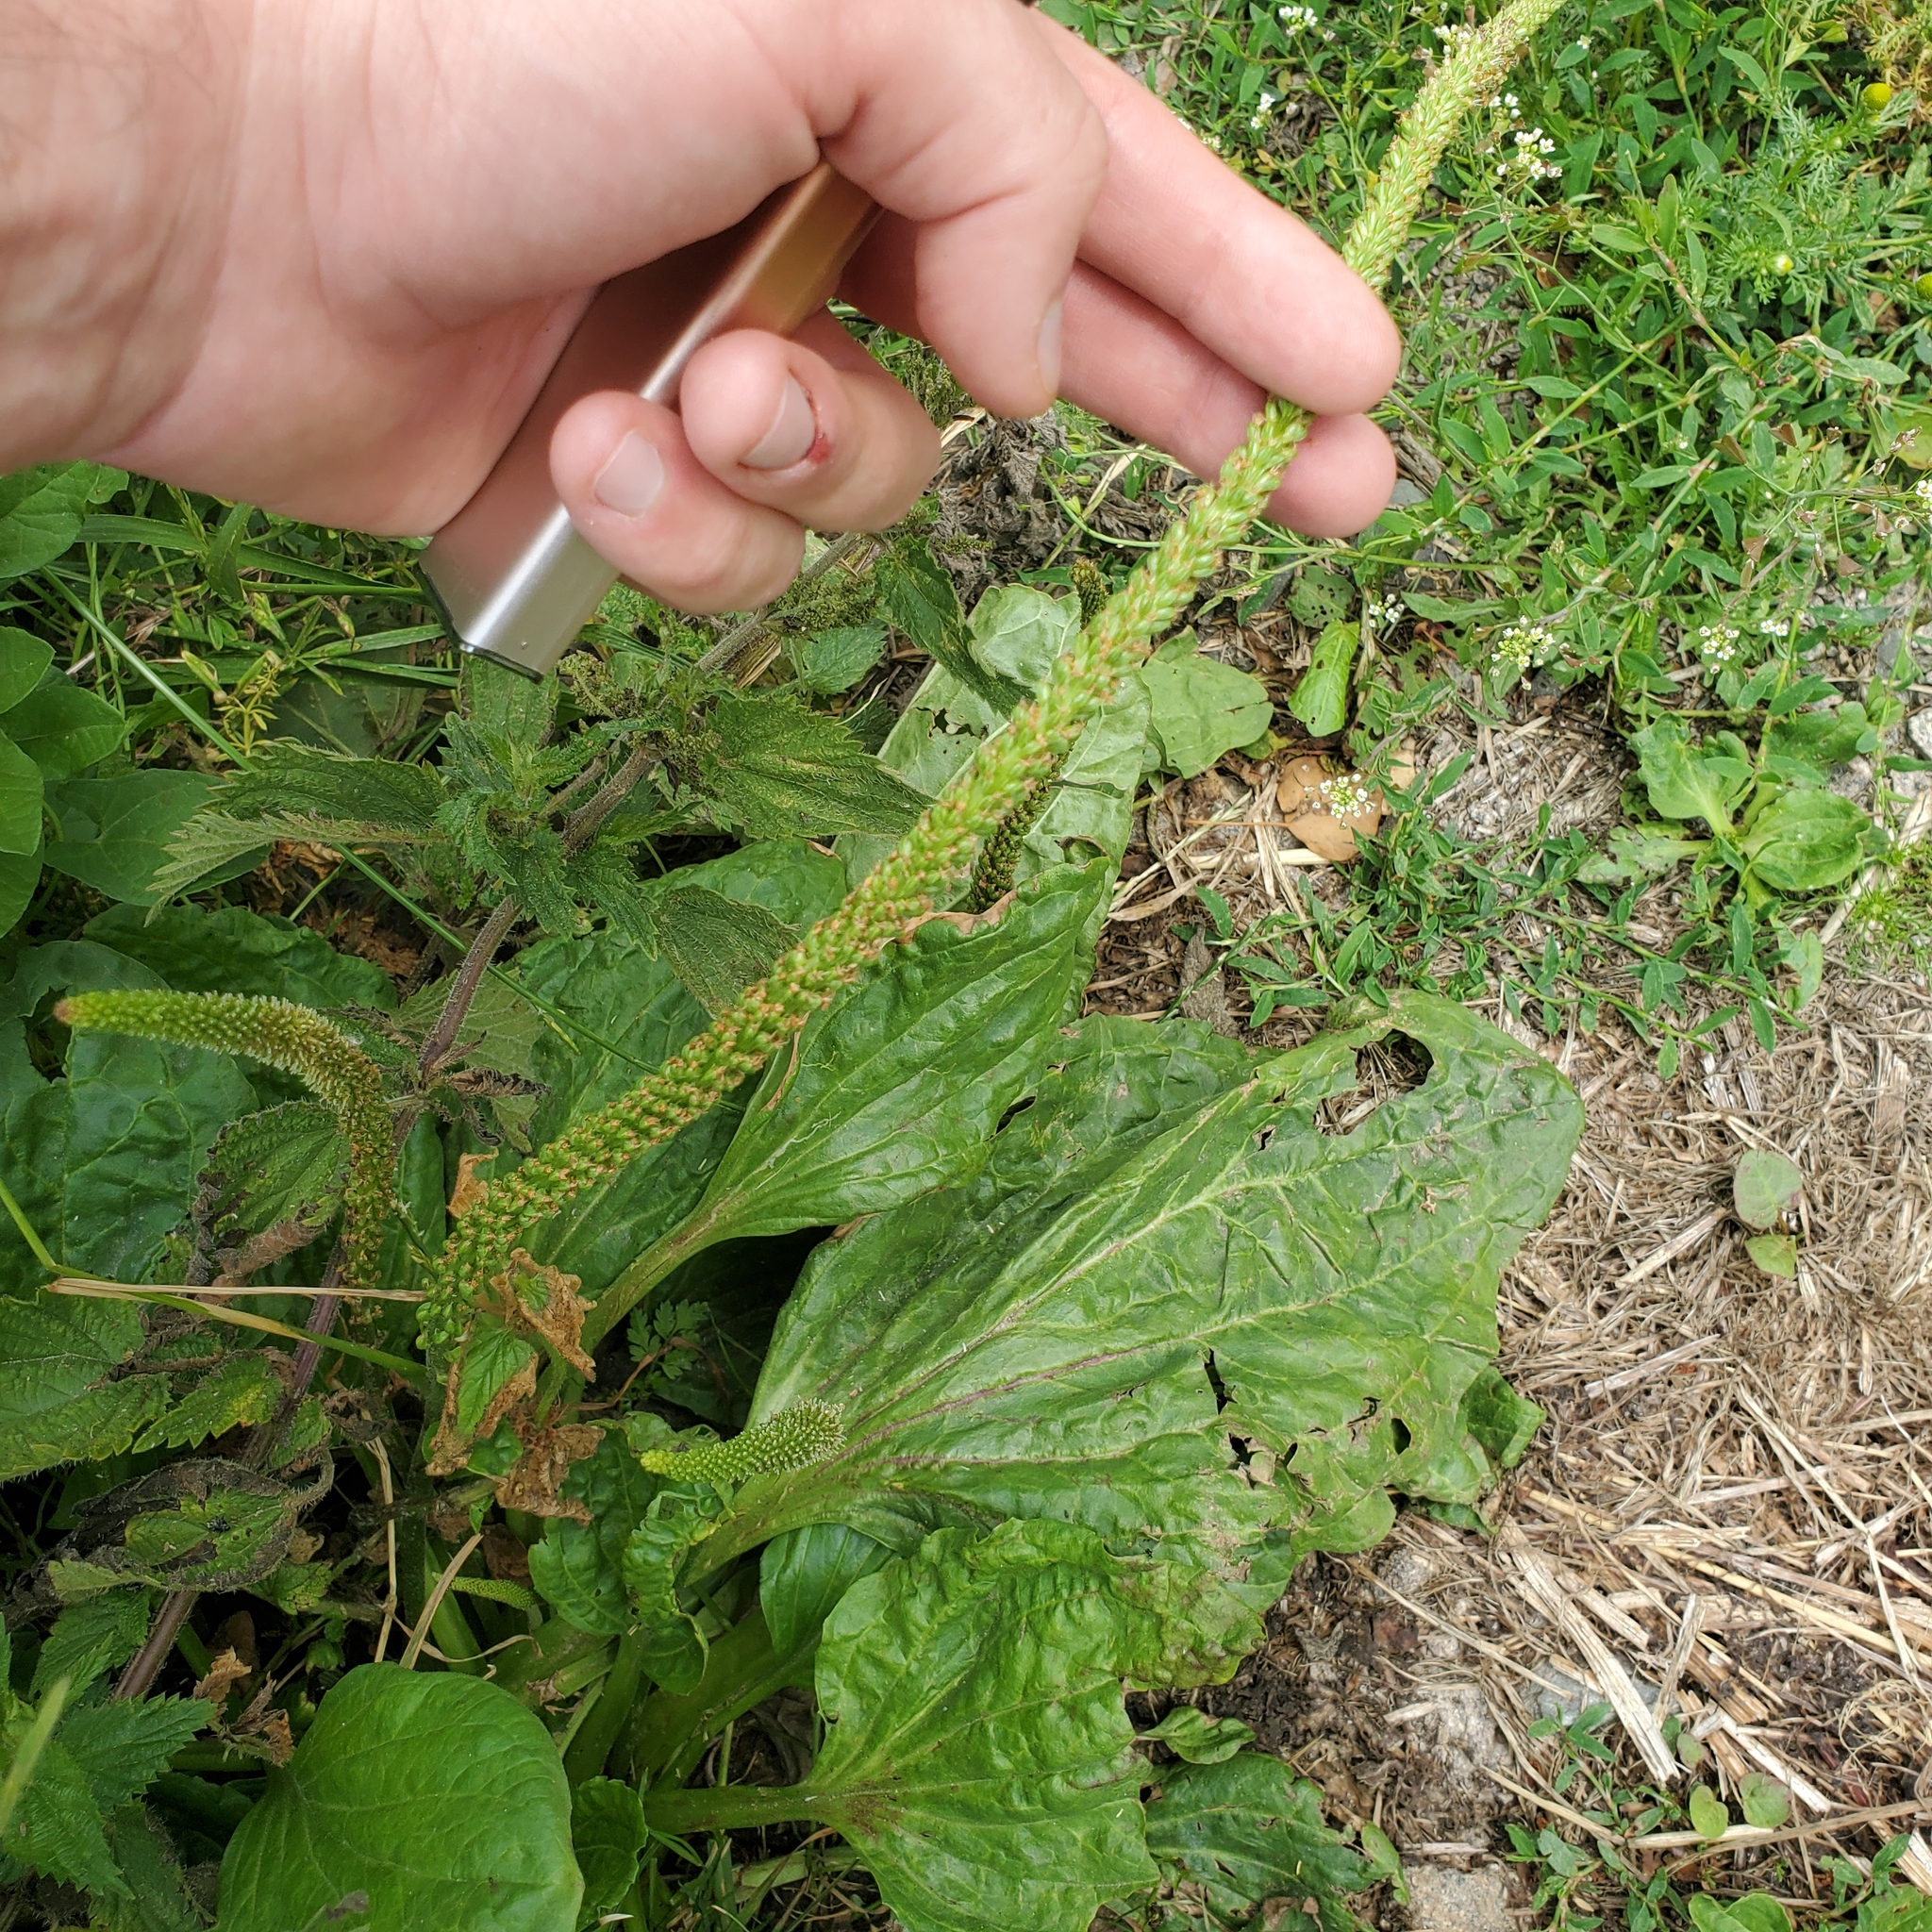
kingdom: Plantae
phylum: Tracheophyta
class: Magnoliopsida
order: Lamiales
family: Plantaginaceae
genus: Plantago
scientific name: Plantago major
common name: Common plantain
